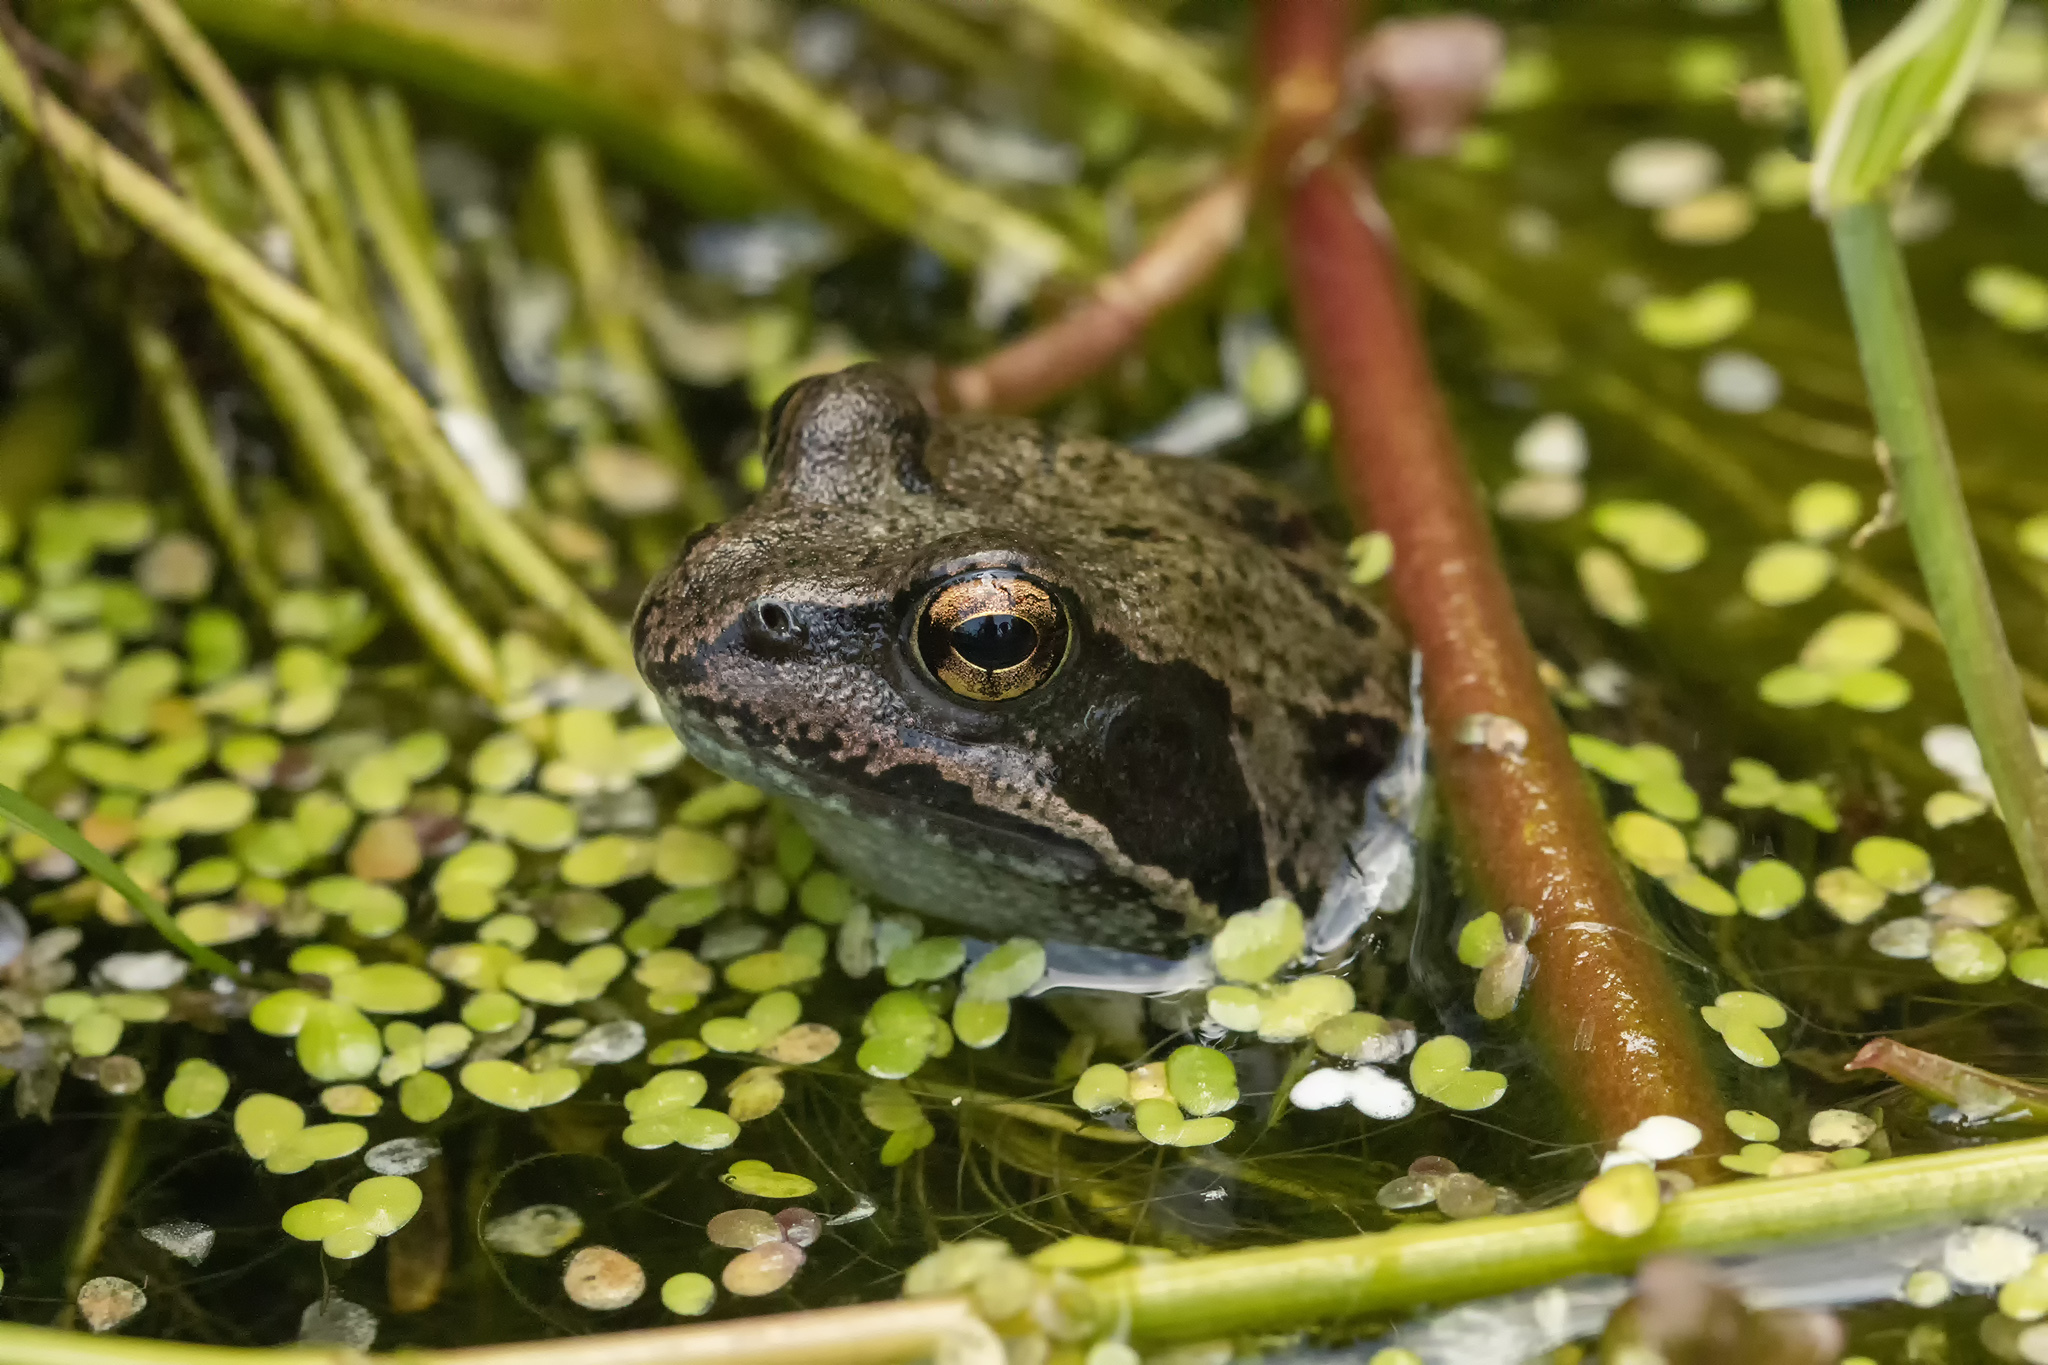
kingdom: Animalia
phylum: Chordata
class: Amphibia
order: Anura
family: Ranidae
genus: Rana
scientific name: Rana temporaria
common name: Common frog
